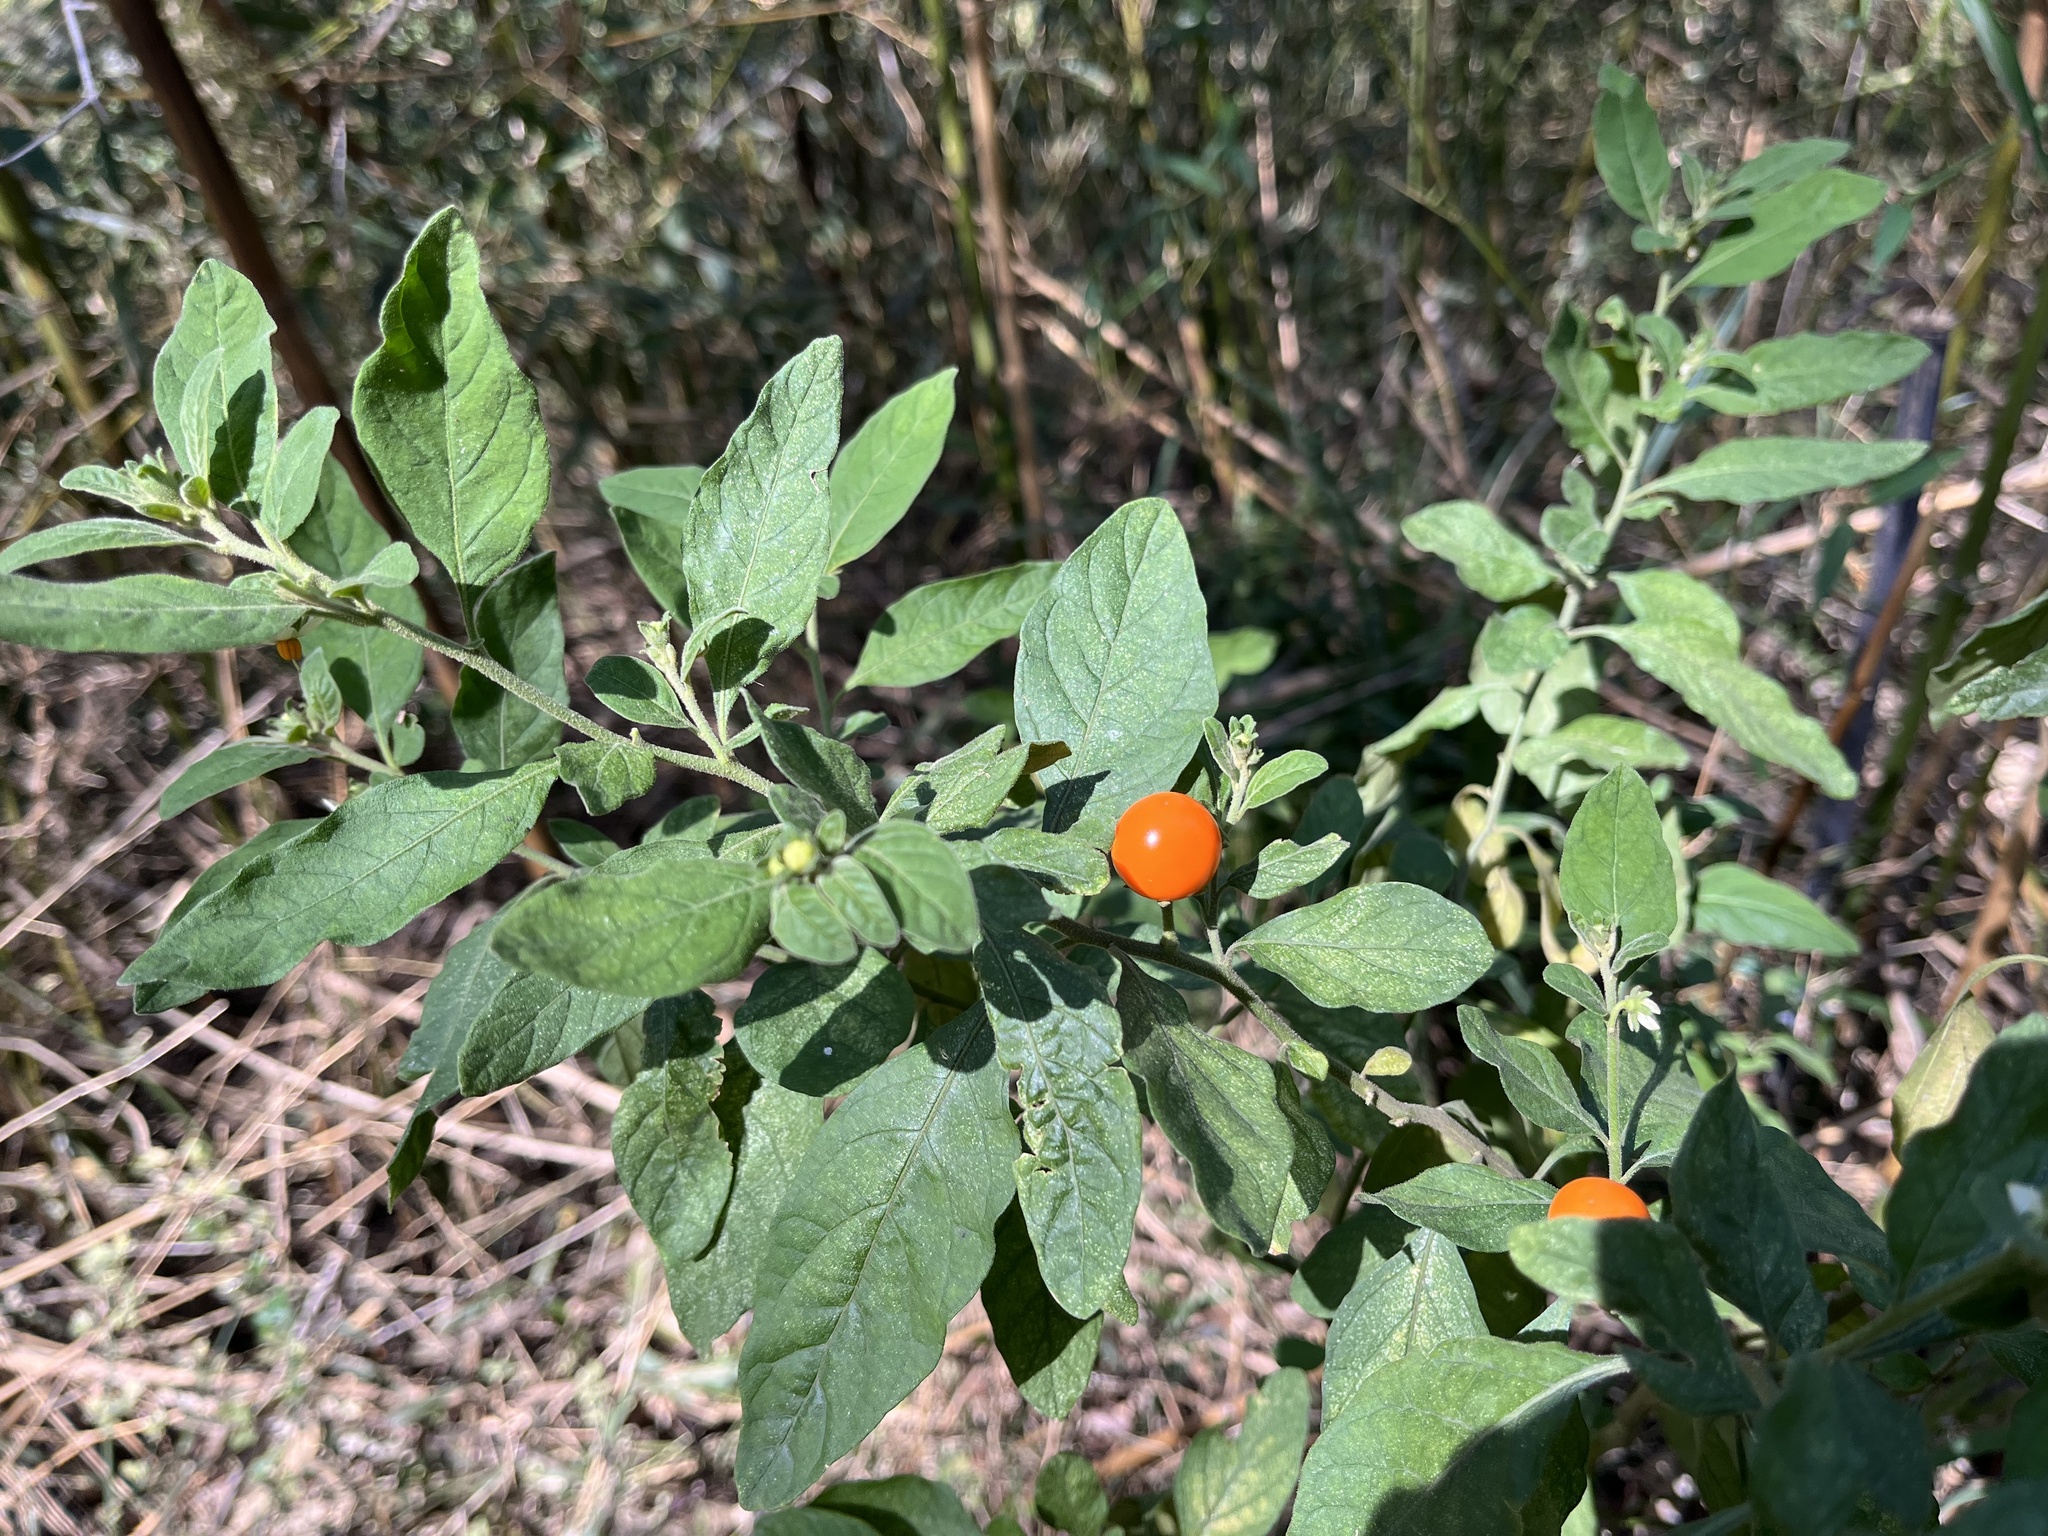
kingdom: Plantae
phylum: Tracheophyta
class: Magnoliopsida
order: Solanales
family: Solanaceae
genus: Solanum
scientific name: Solanum pseudocapsicum
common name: Jerusalem cherry
